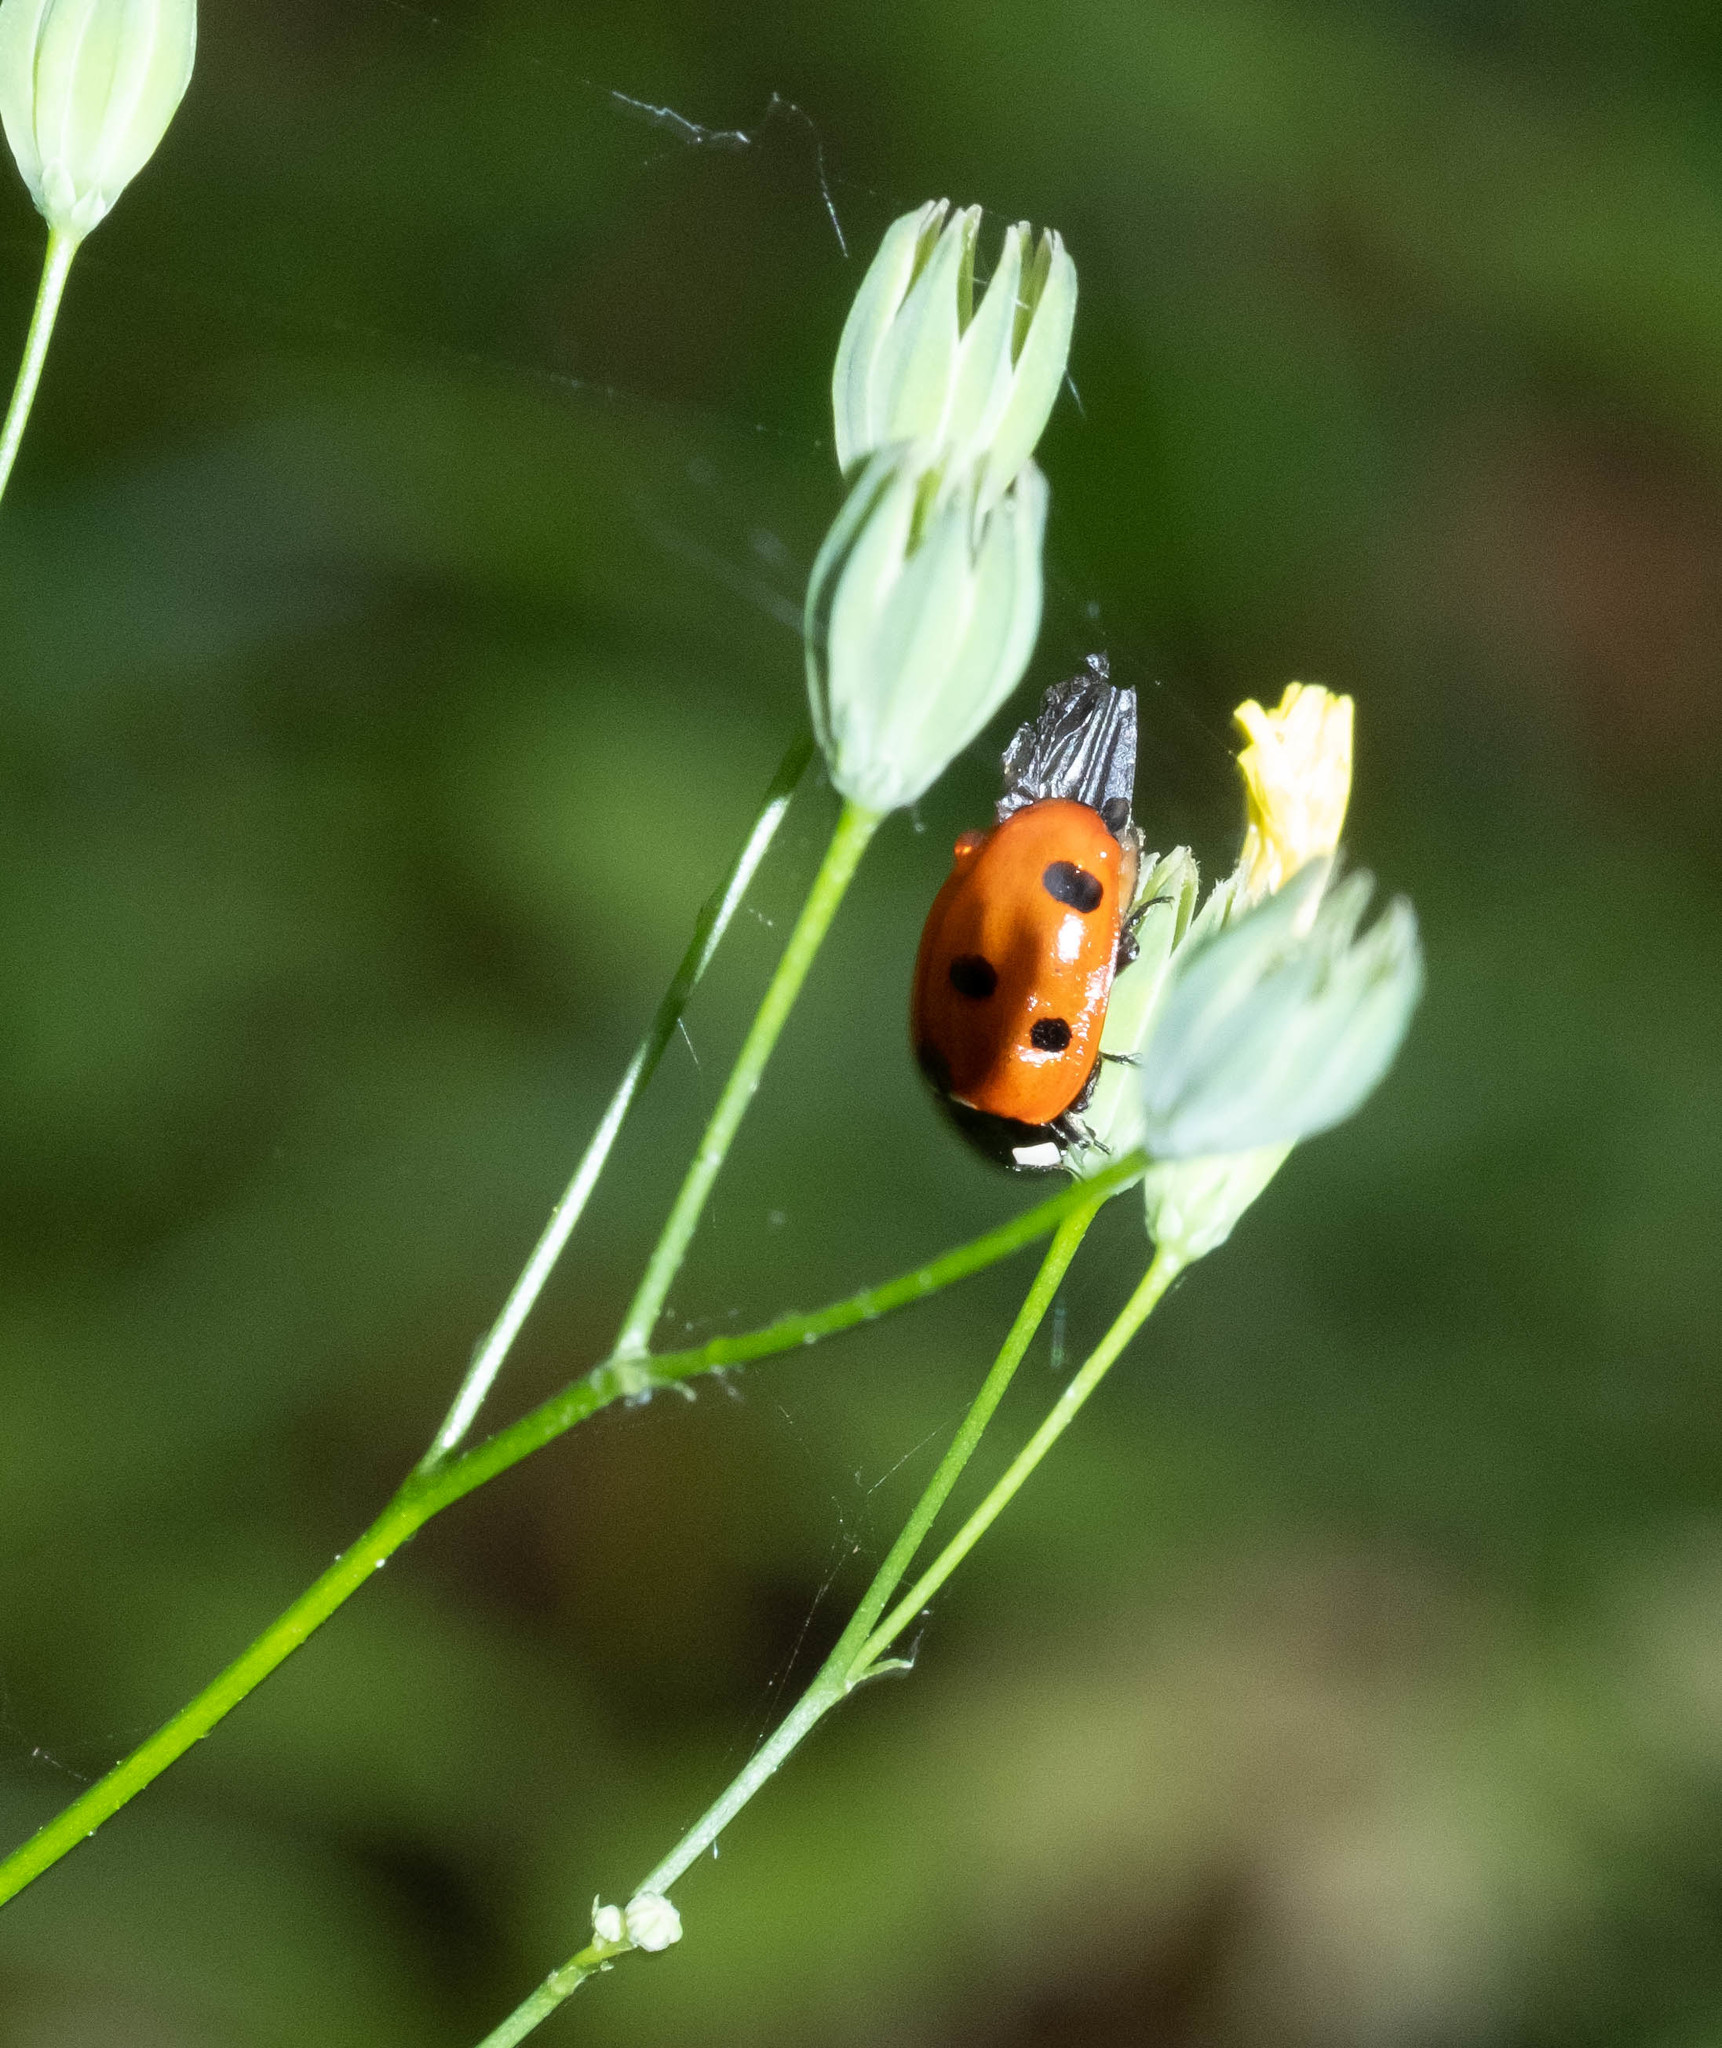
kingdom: Animalia
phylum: Arthropoda
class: Insecta
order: Coleoptera
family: Coccinellidae
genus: Coccinella
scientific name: Coccinella septempunctata
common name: Sevenspotted lady beetle
